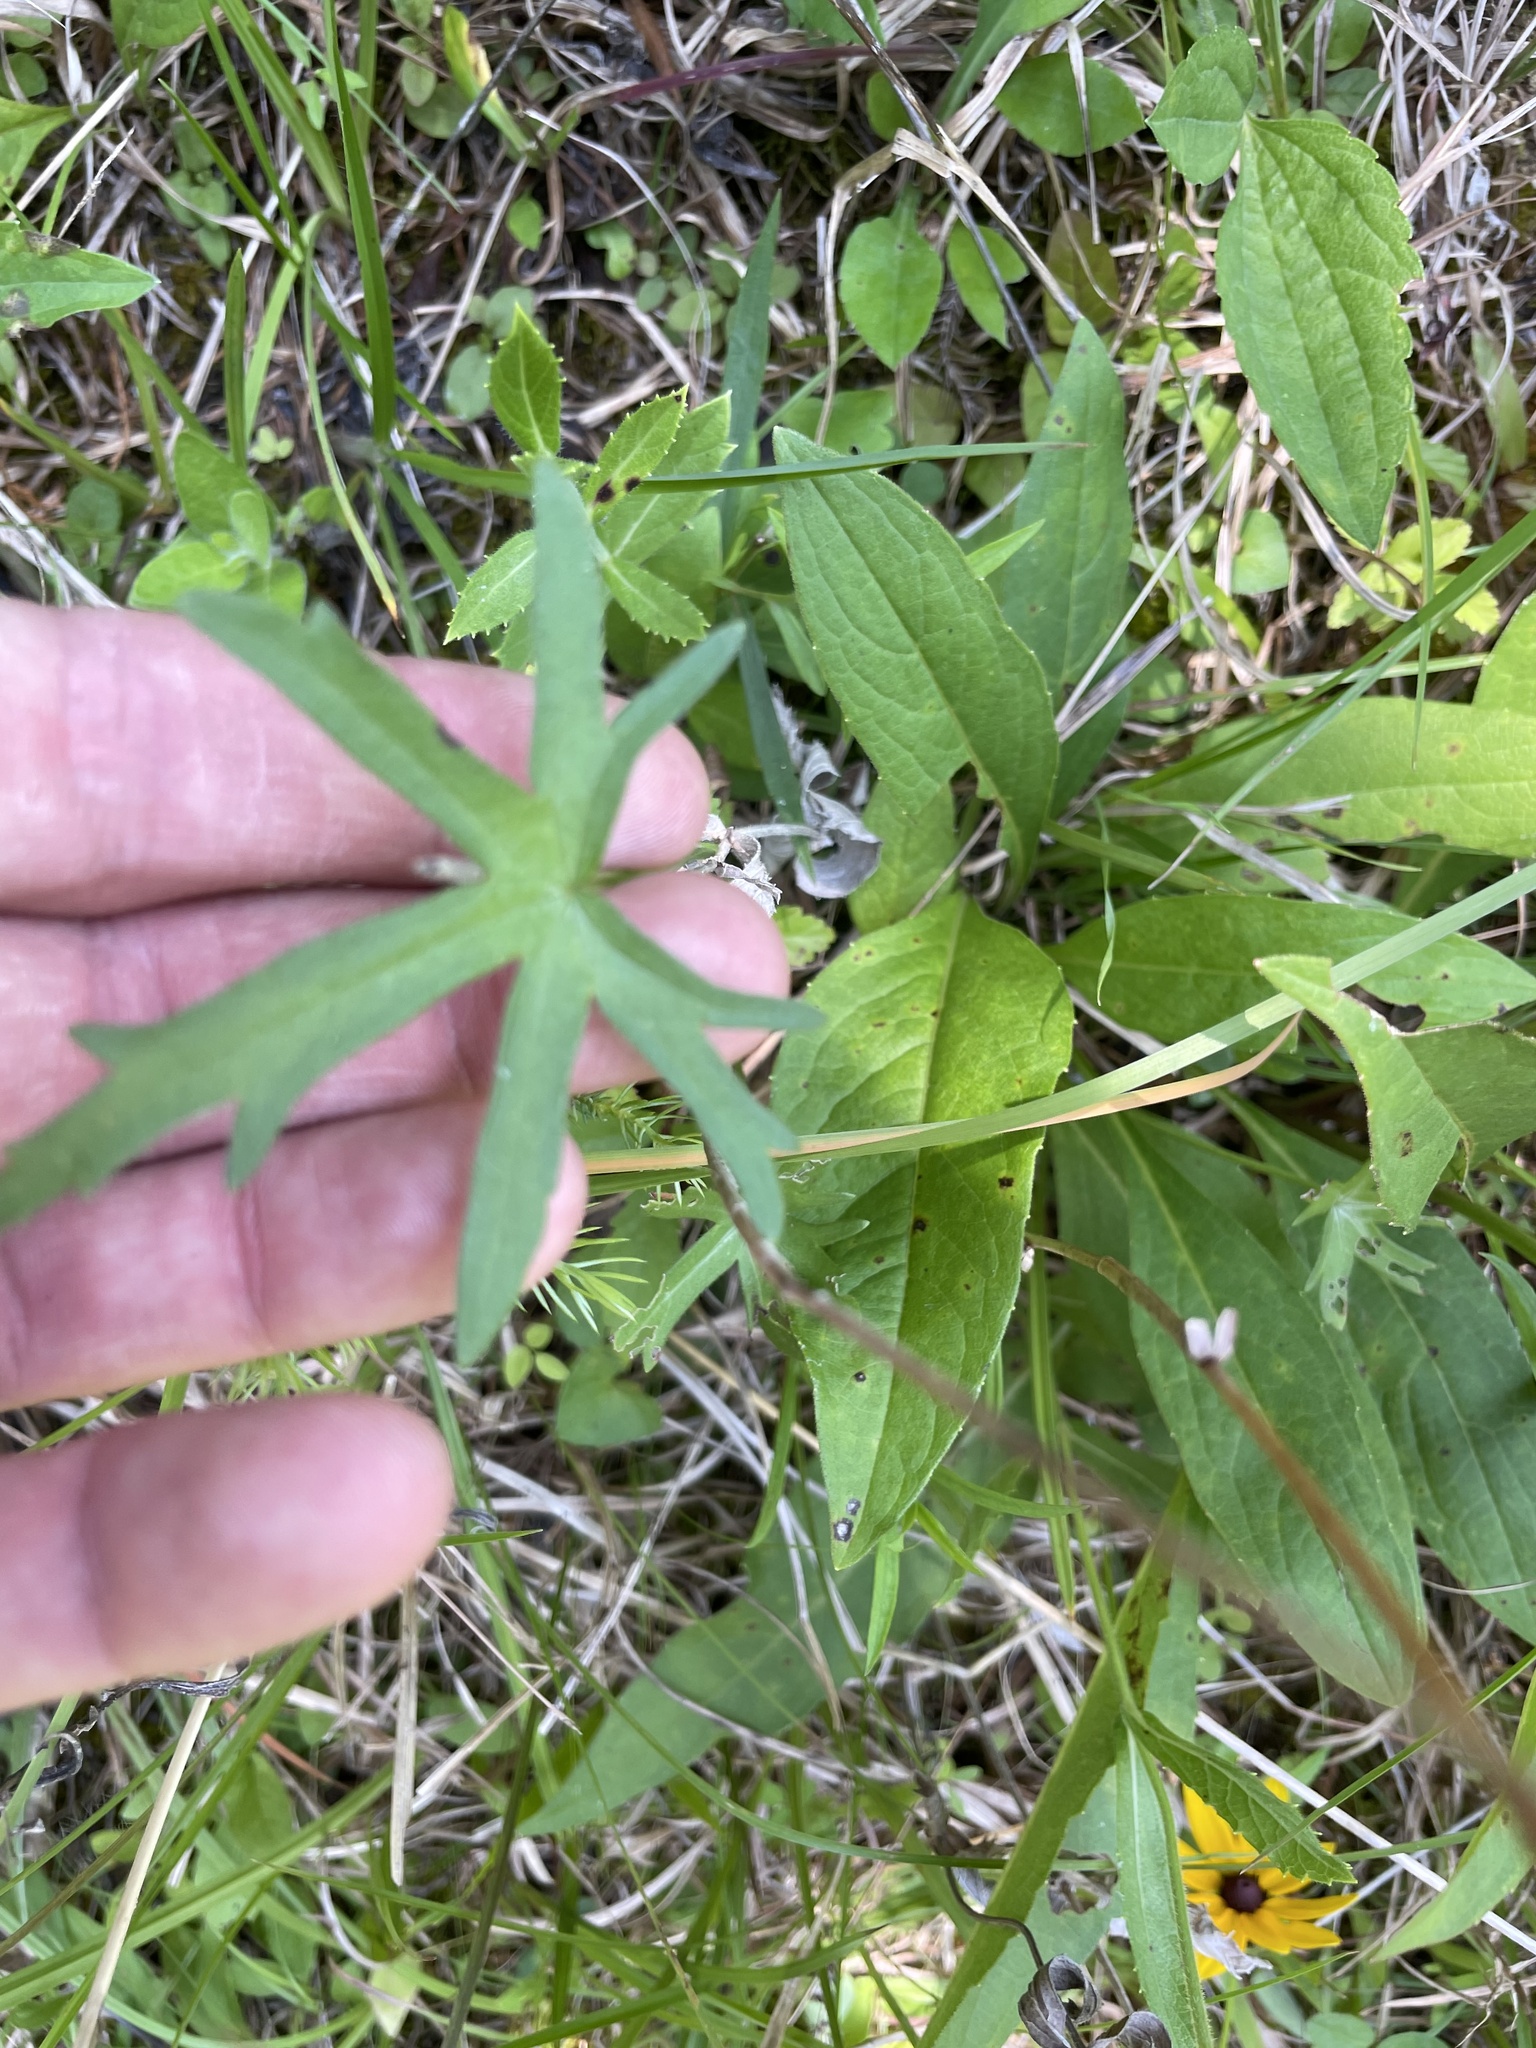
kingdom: Plantae
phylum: Tracheophyta
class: Magnoliopsida
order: Malvales
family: Malvaceae
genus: Callirhoe
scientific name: Callirhoe papaver
